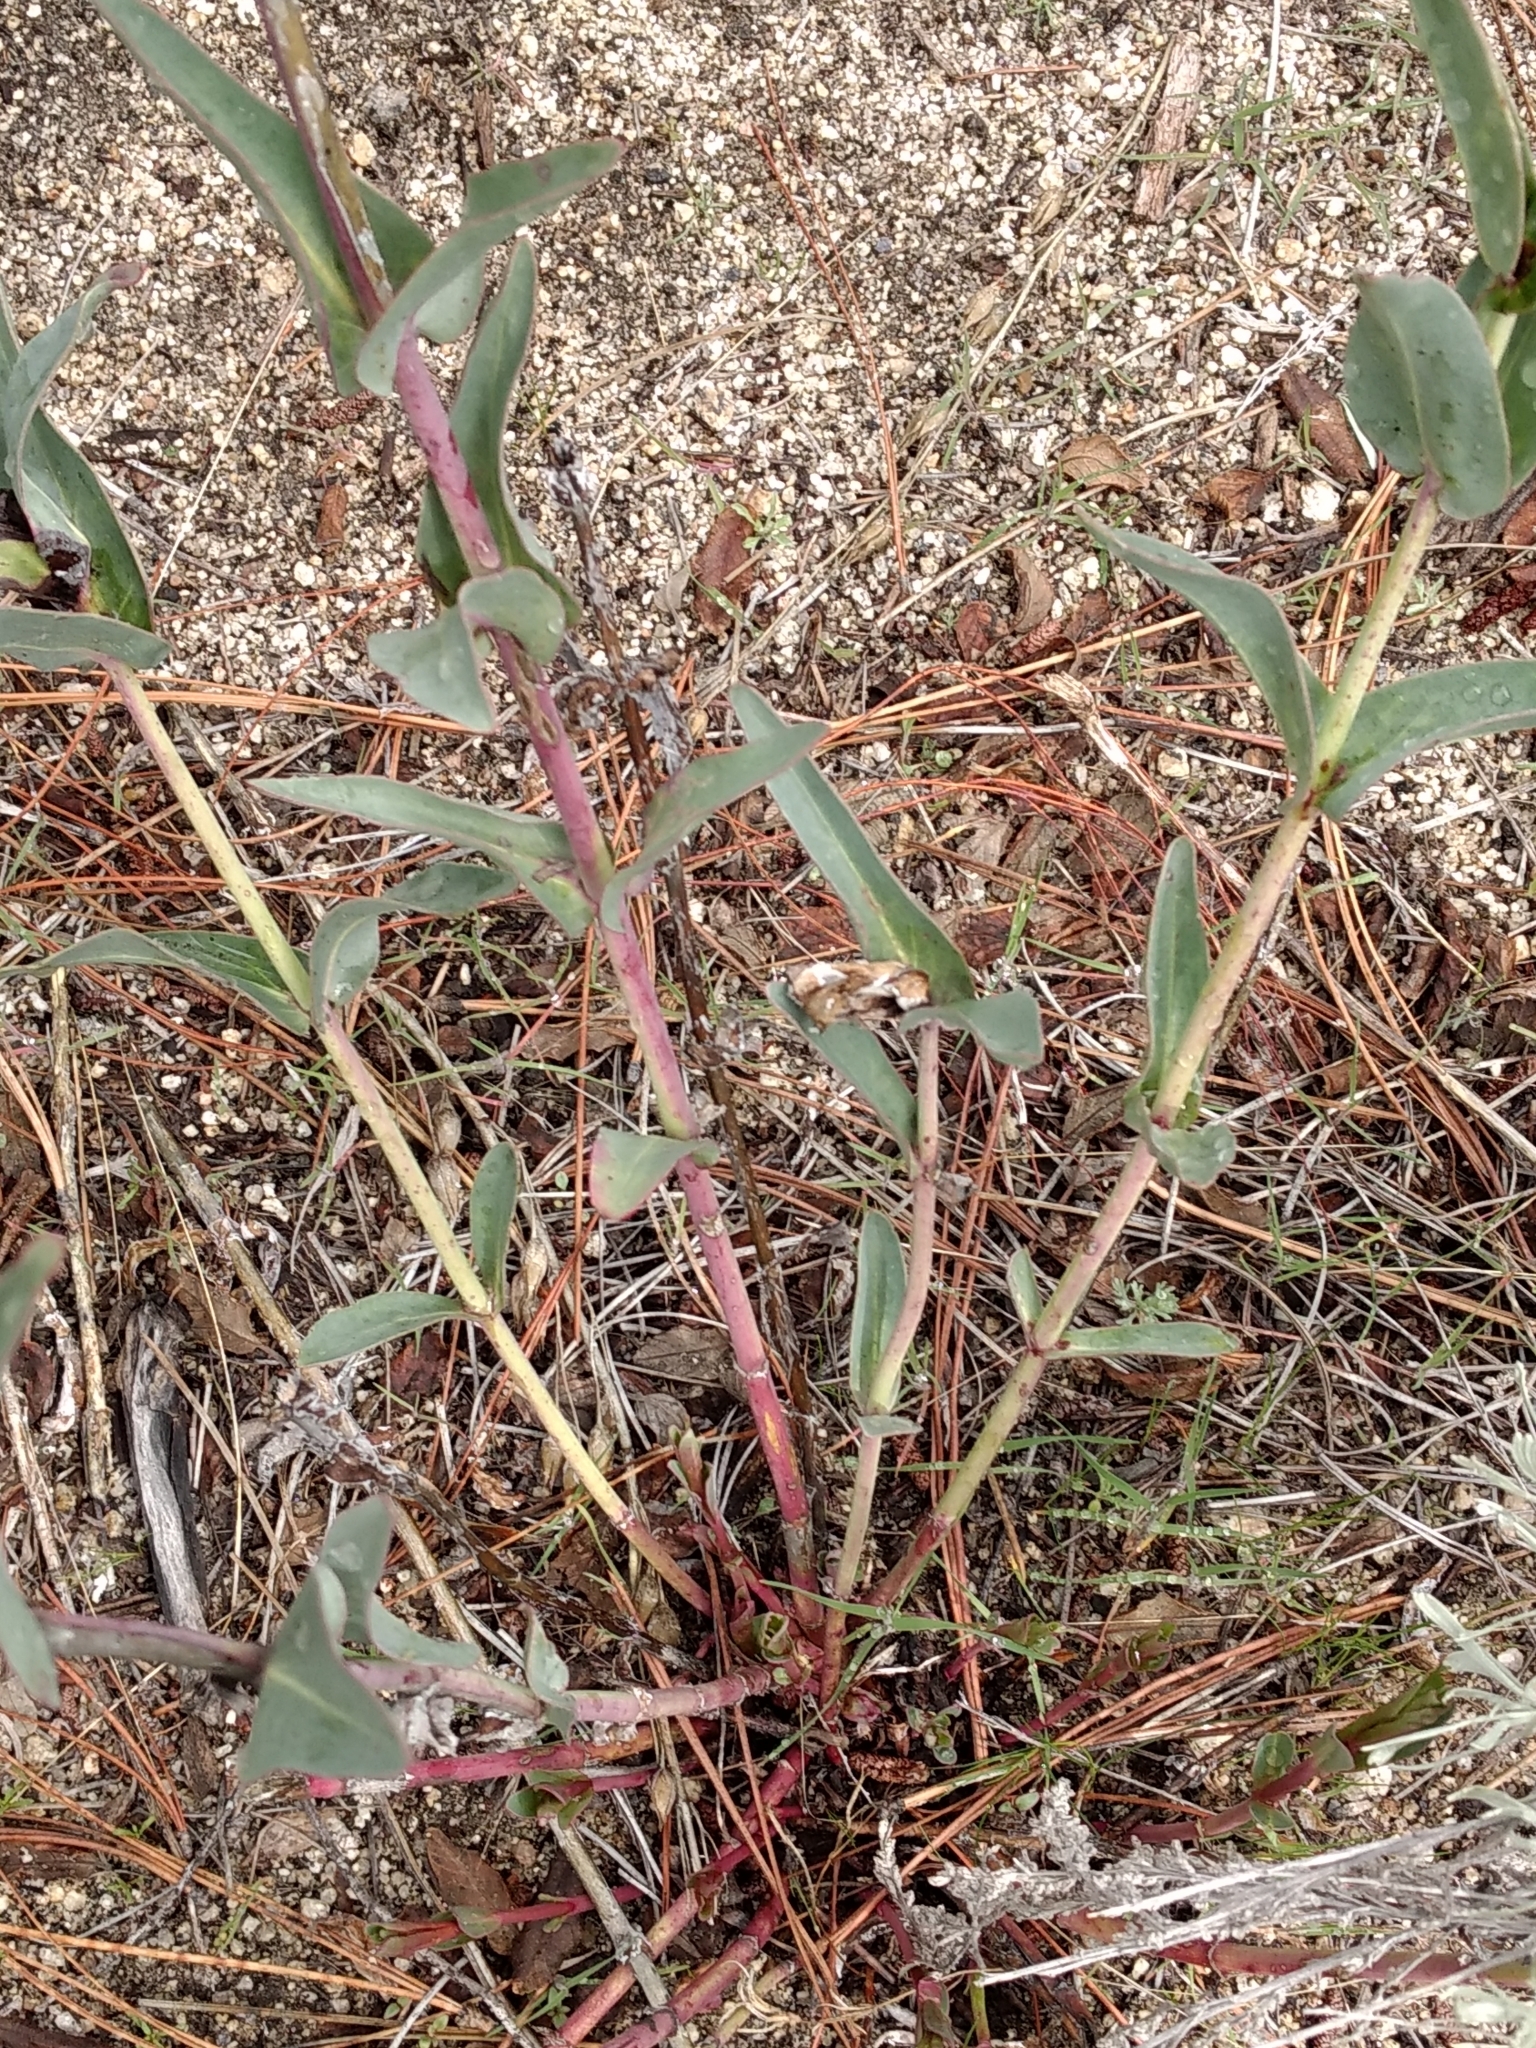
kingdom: Plantae
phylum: Tracheophyta
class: Magnoliopsida
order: Lamiales
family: Plantaginaceae
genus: Penstemon
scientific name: Penstemon centranthifolius
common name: Scarlet bugler
